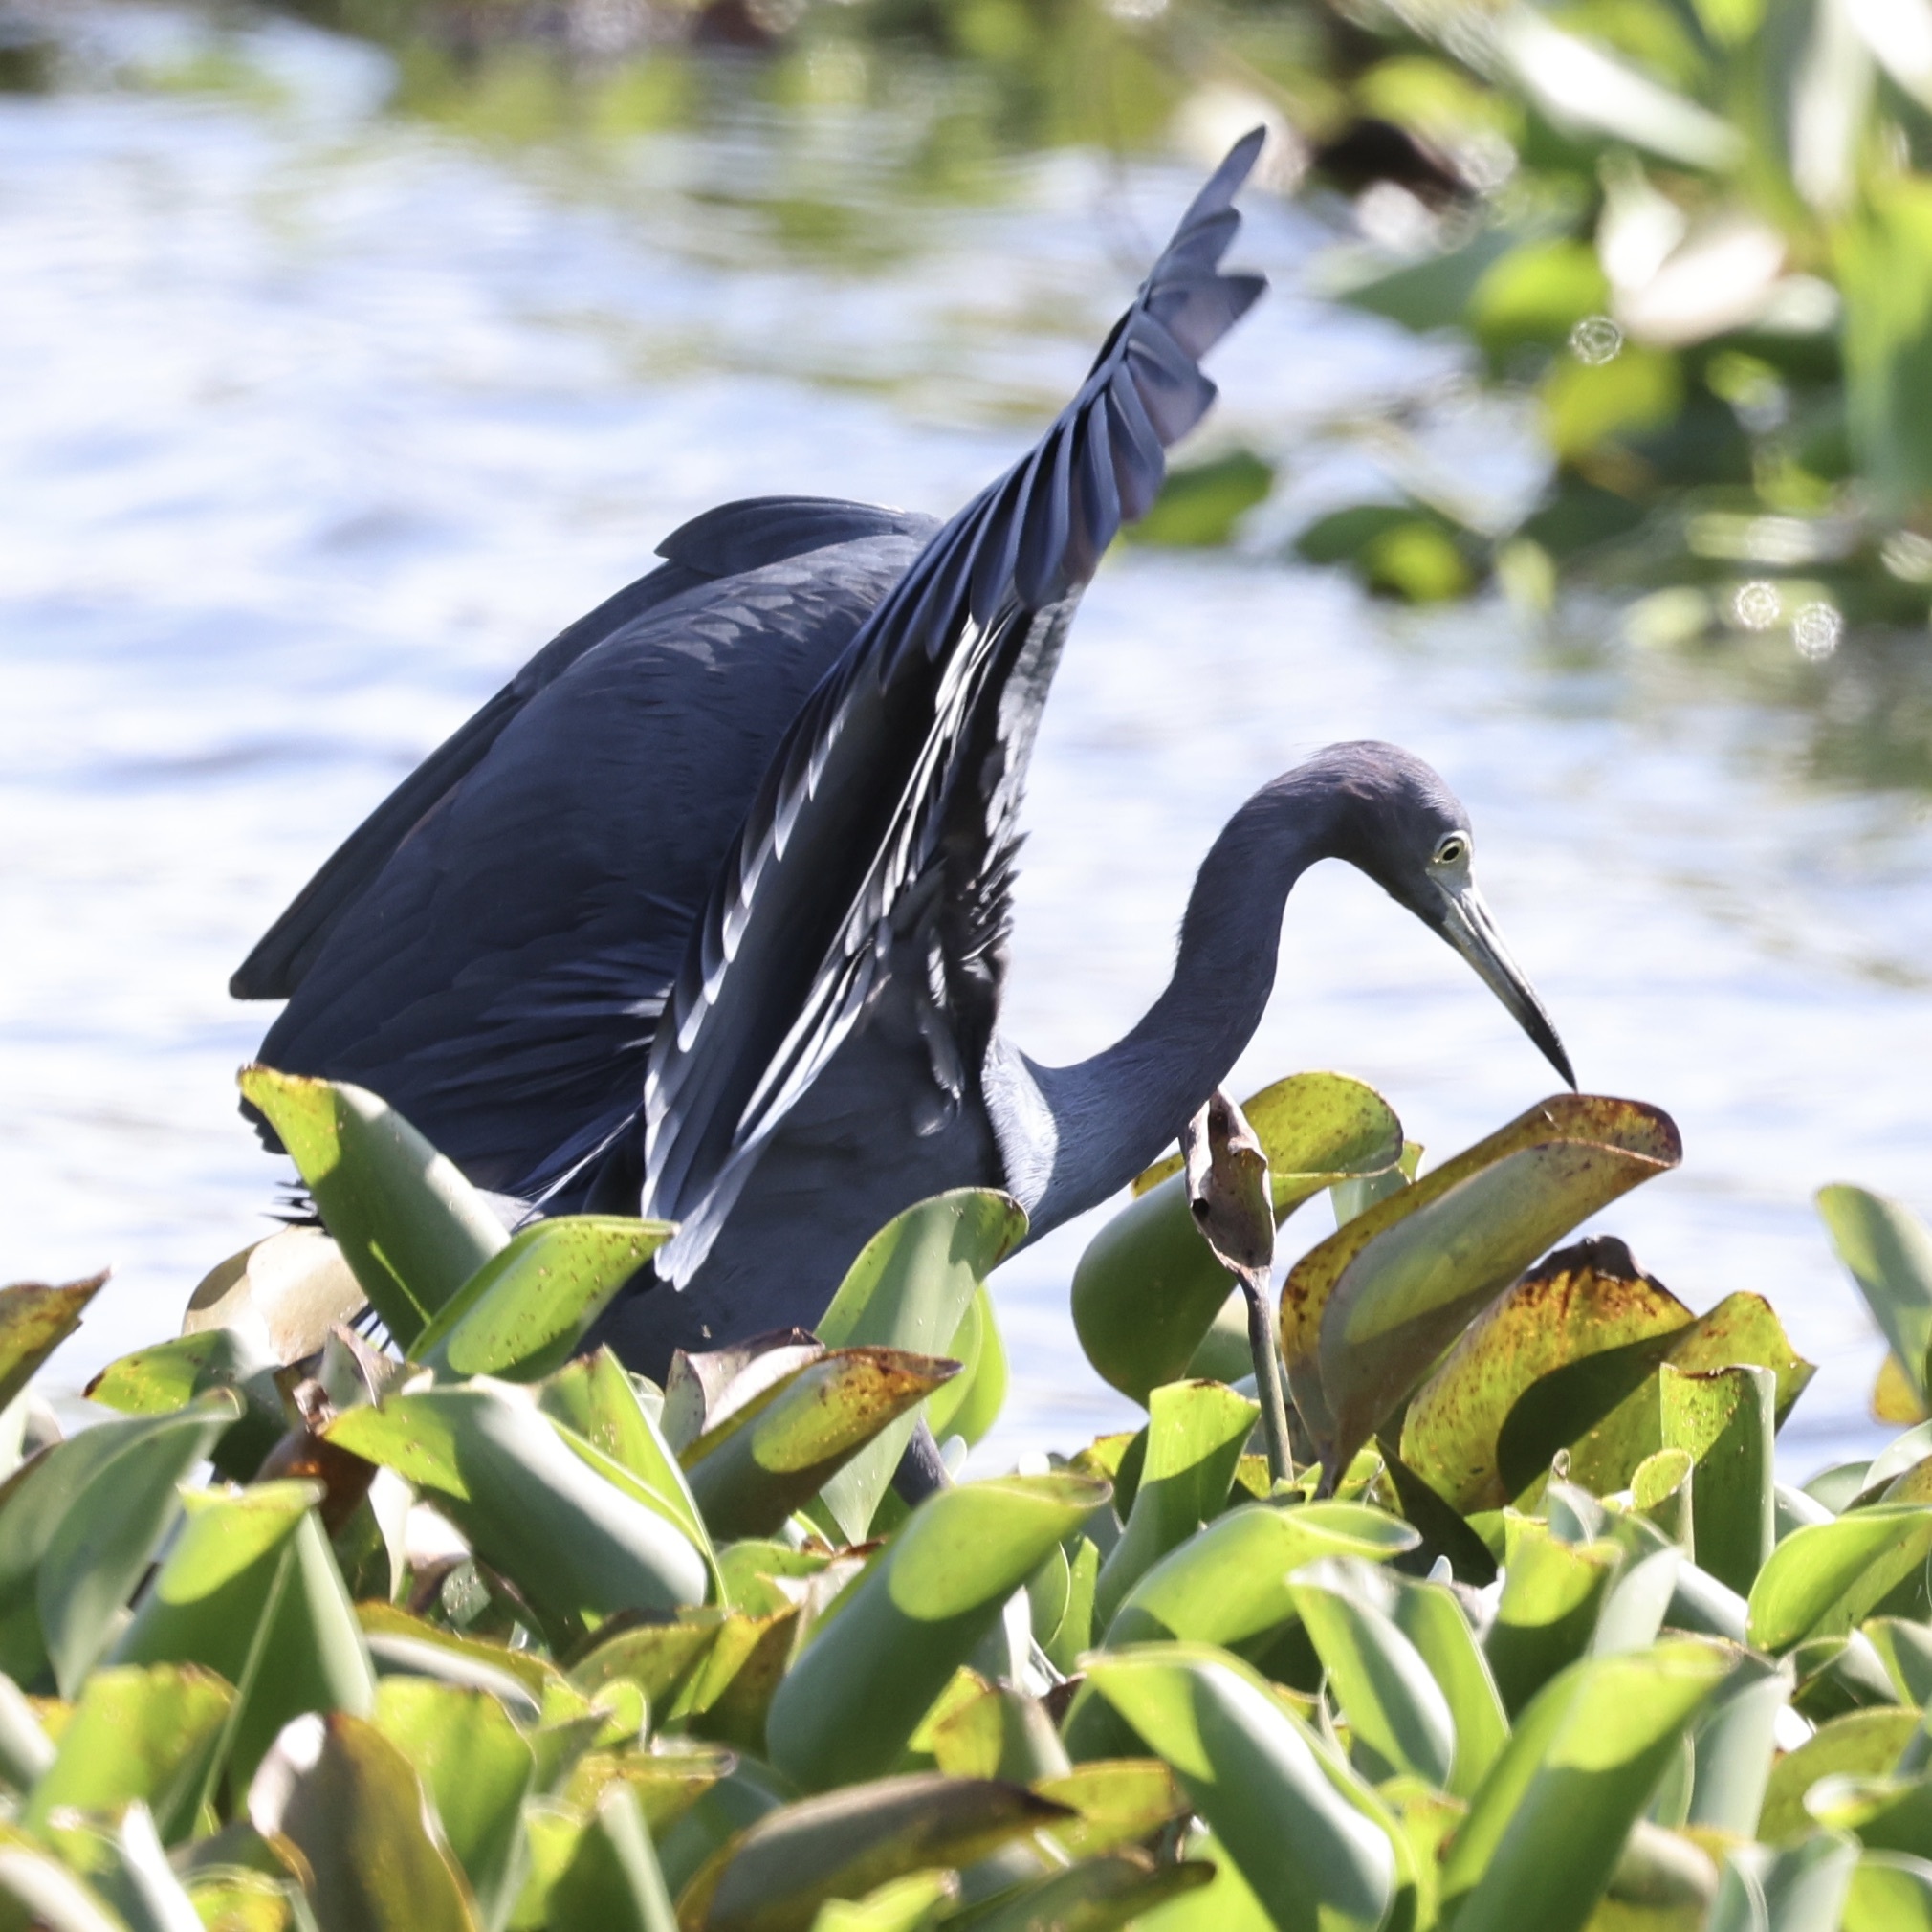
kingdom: Animalia
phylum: Chordata
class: Aves
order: Pelecaniformes
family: Ardeidae
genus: Egretta
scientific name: Egretta caerulea
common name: Little blue heron
